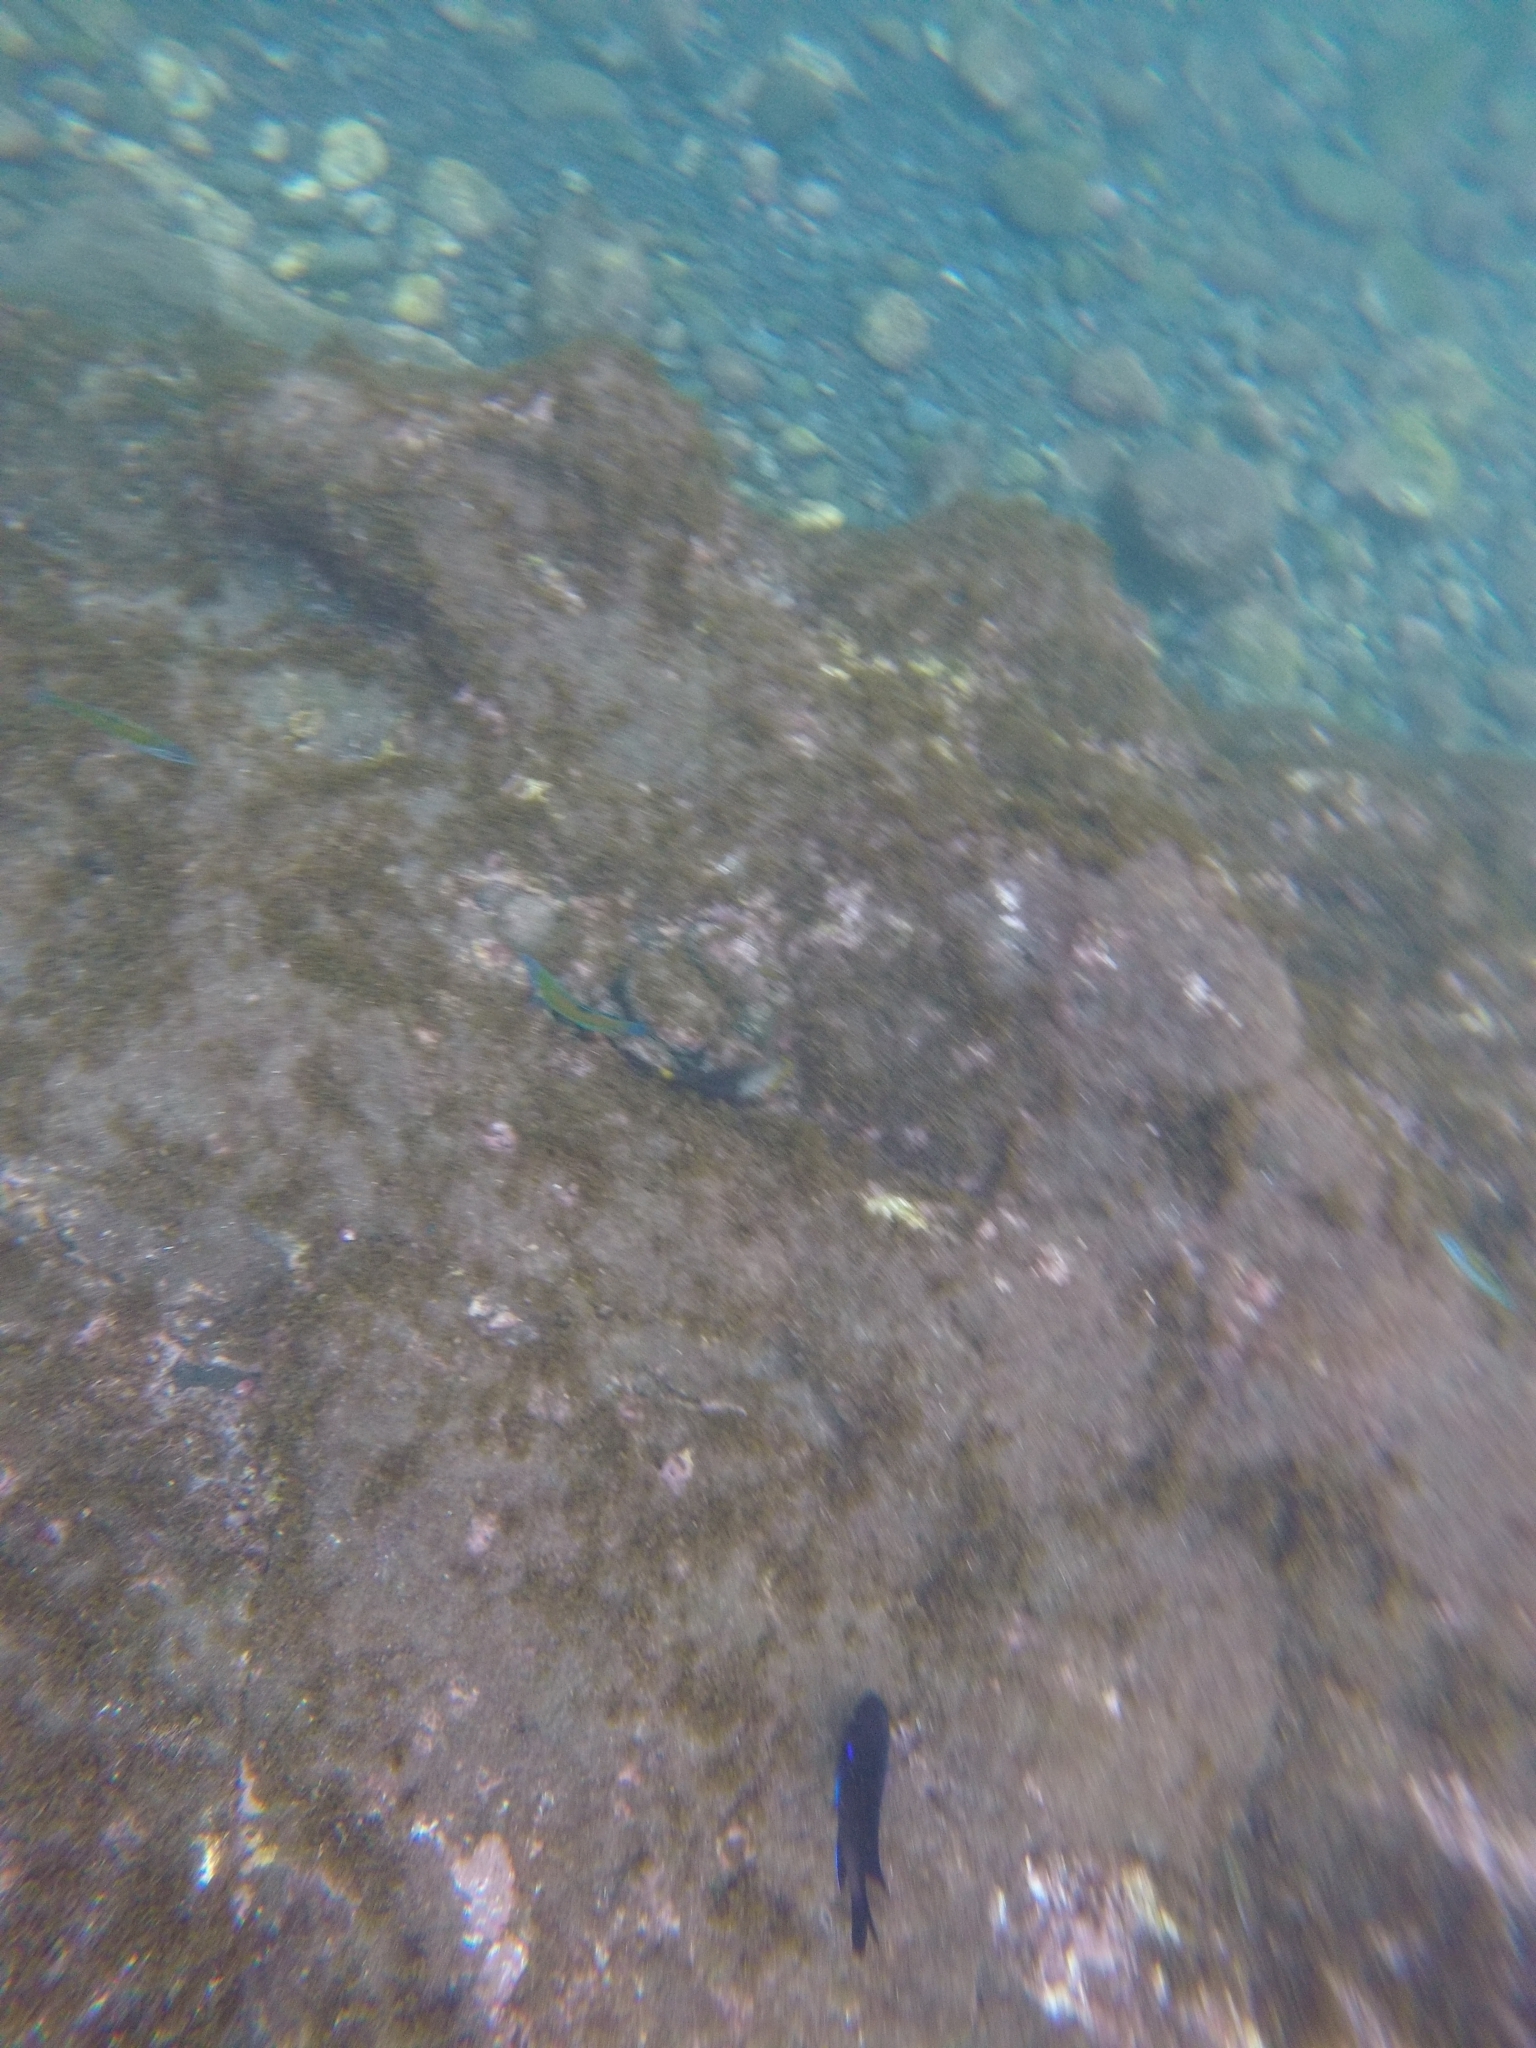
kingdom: Animalia
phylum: Chordata
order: Perciformes
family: Pomacentridae
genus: Similiparma
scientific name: Similiparma lurida
